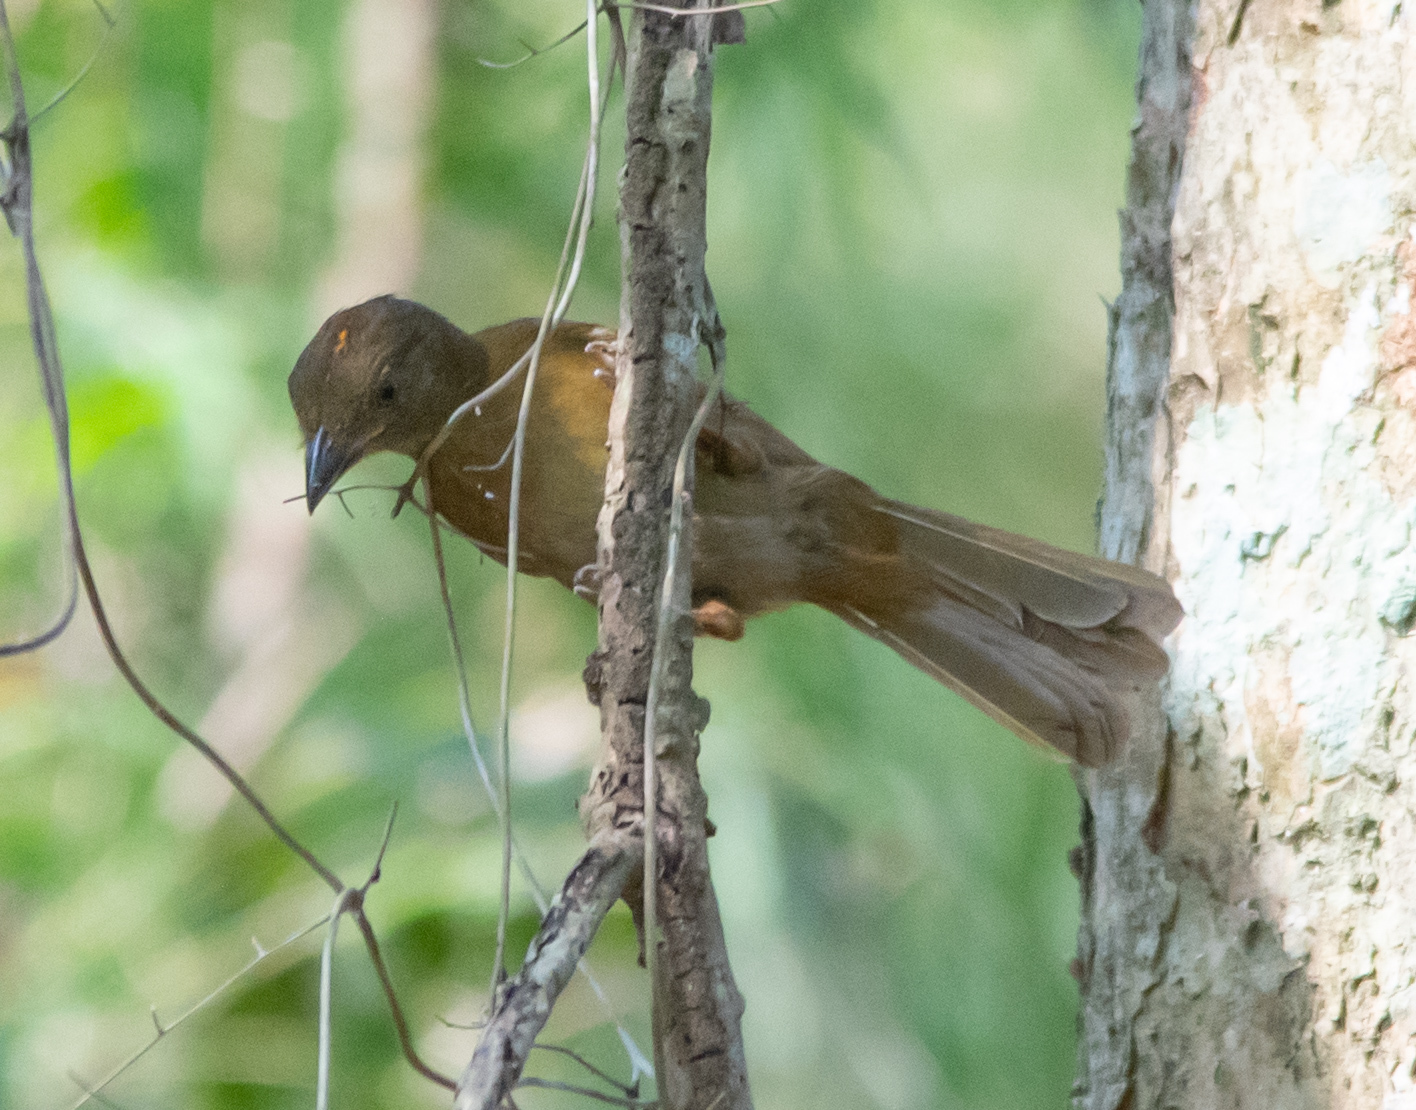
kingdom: Animalia
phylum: Chordata
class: Aves
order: Passeriformes
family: Cardinalidae
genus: Habia
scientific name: Habia rubica
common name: Red-crowned ant-tanager
